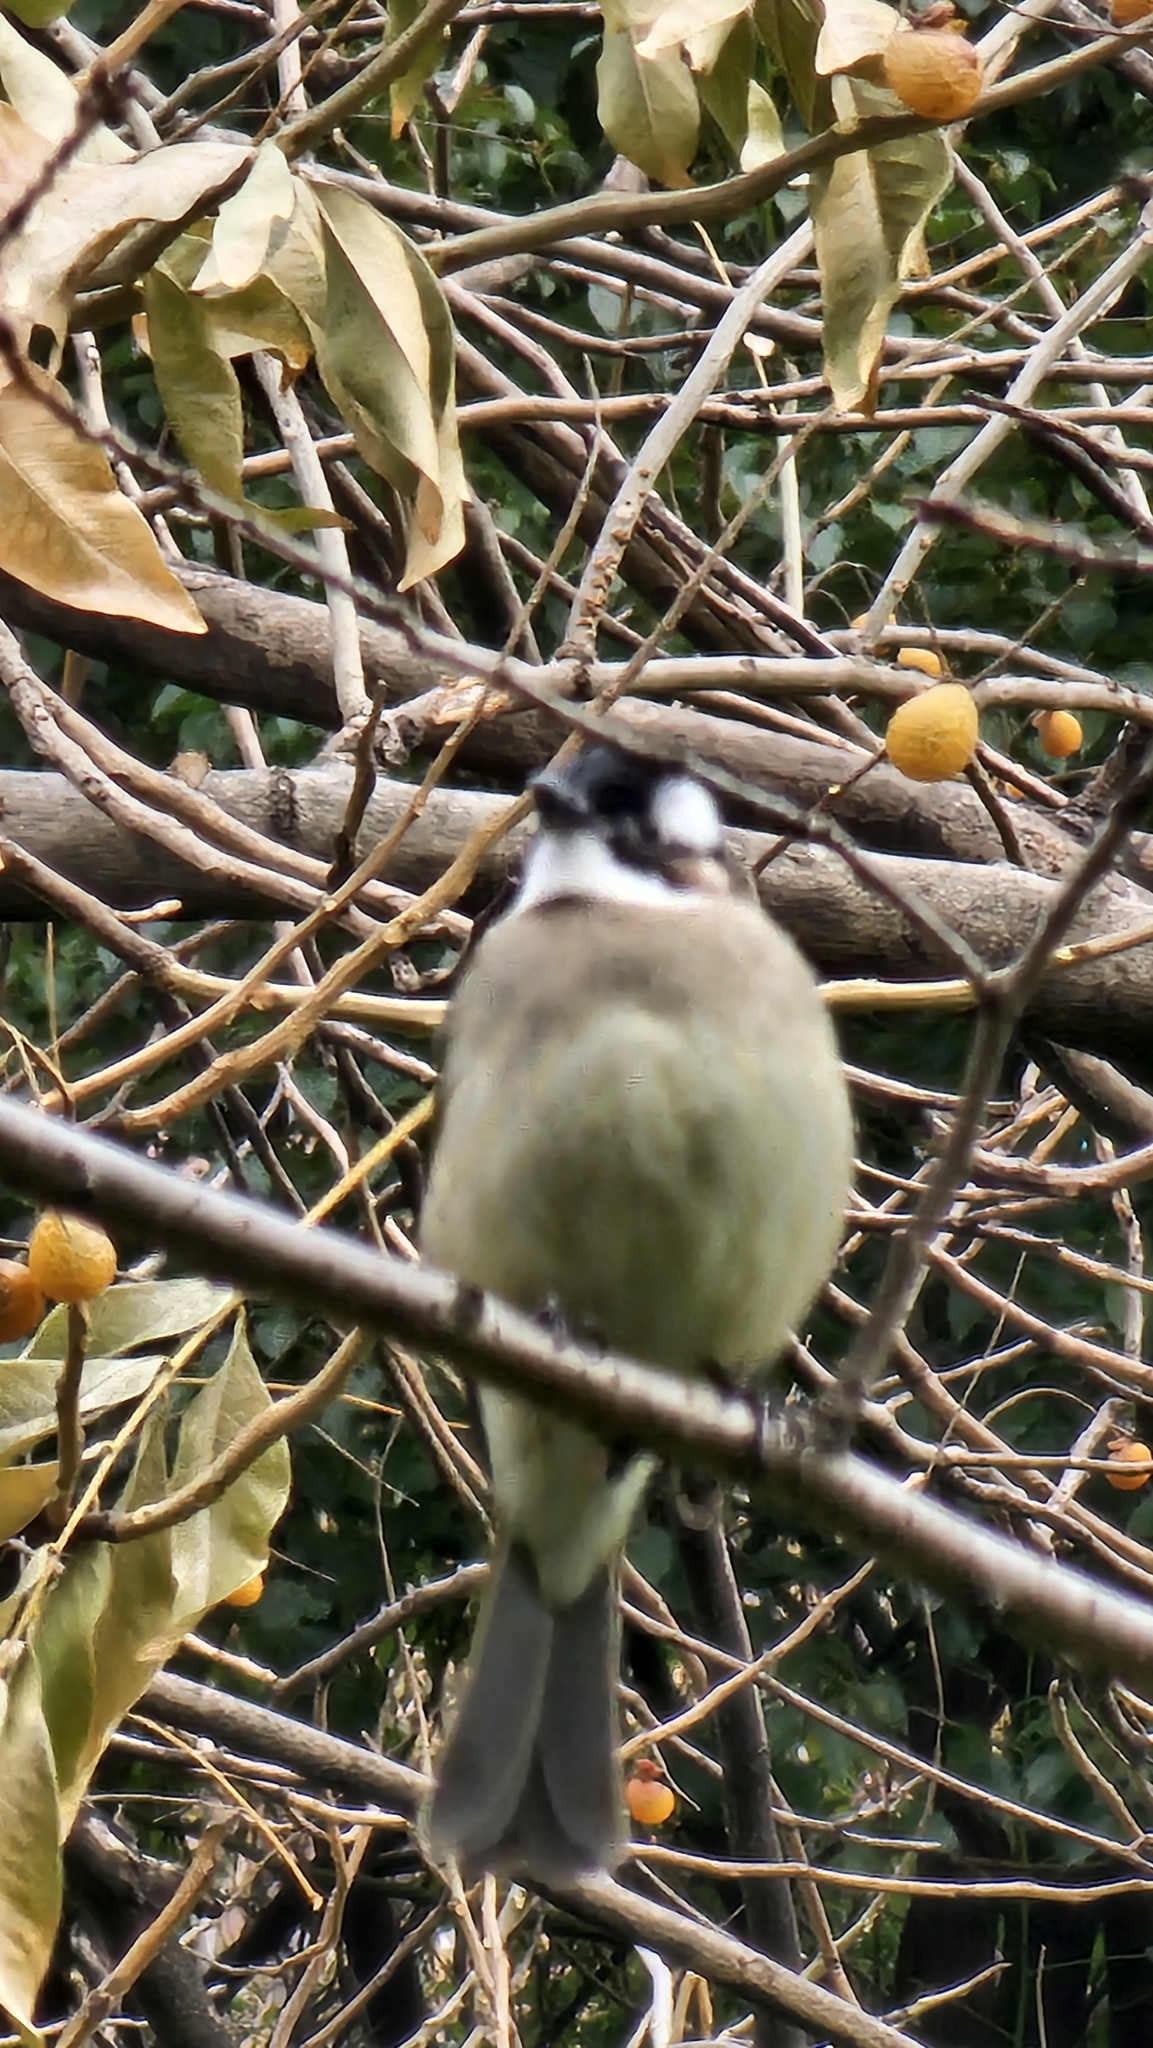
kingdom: Animalia
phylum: Chordata
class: Aves
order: Passeriformes
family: Pycnonotidae
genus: Pycnonotus
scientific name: Pycnonotus sinensis
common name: Light-vented bulbul
